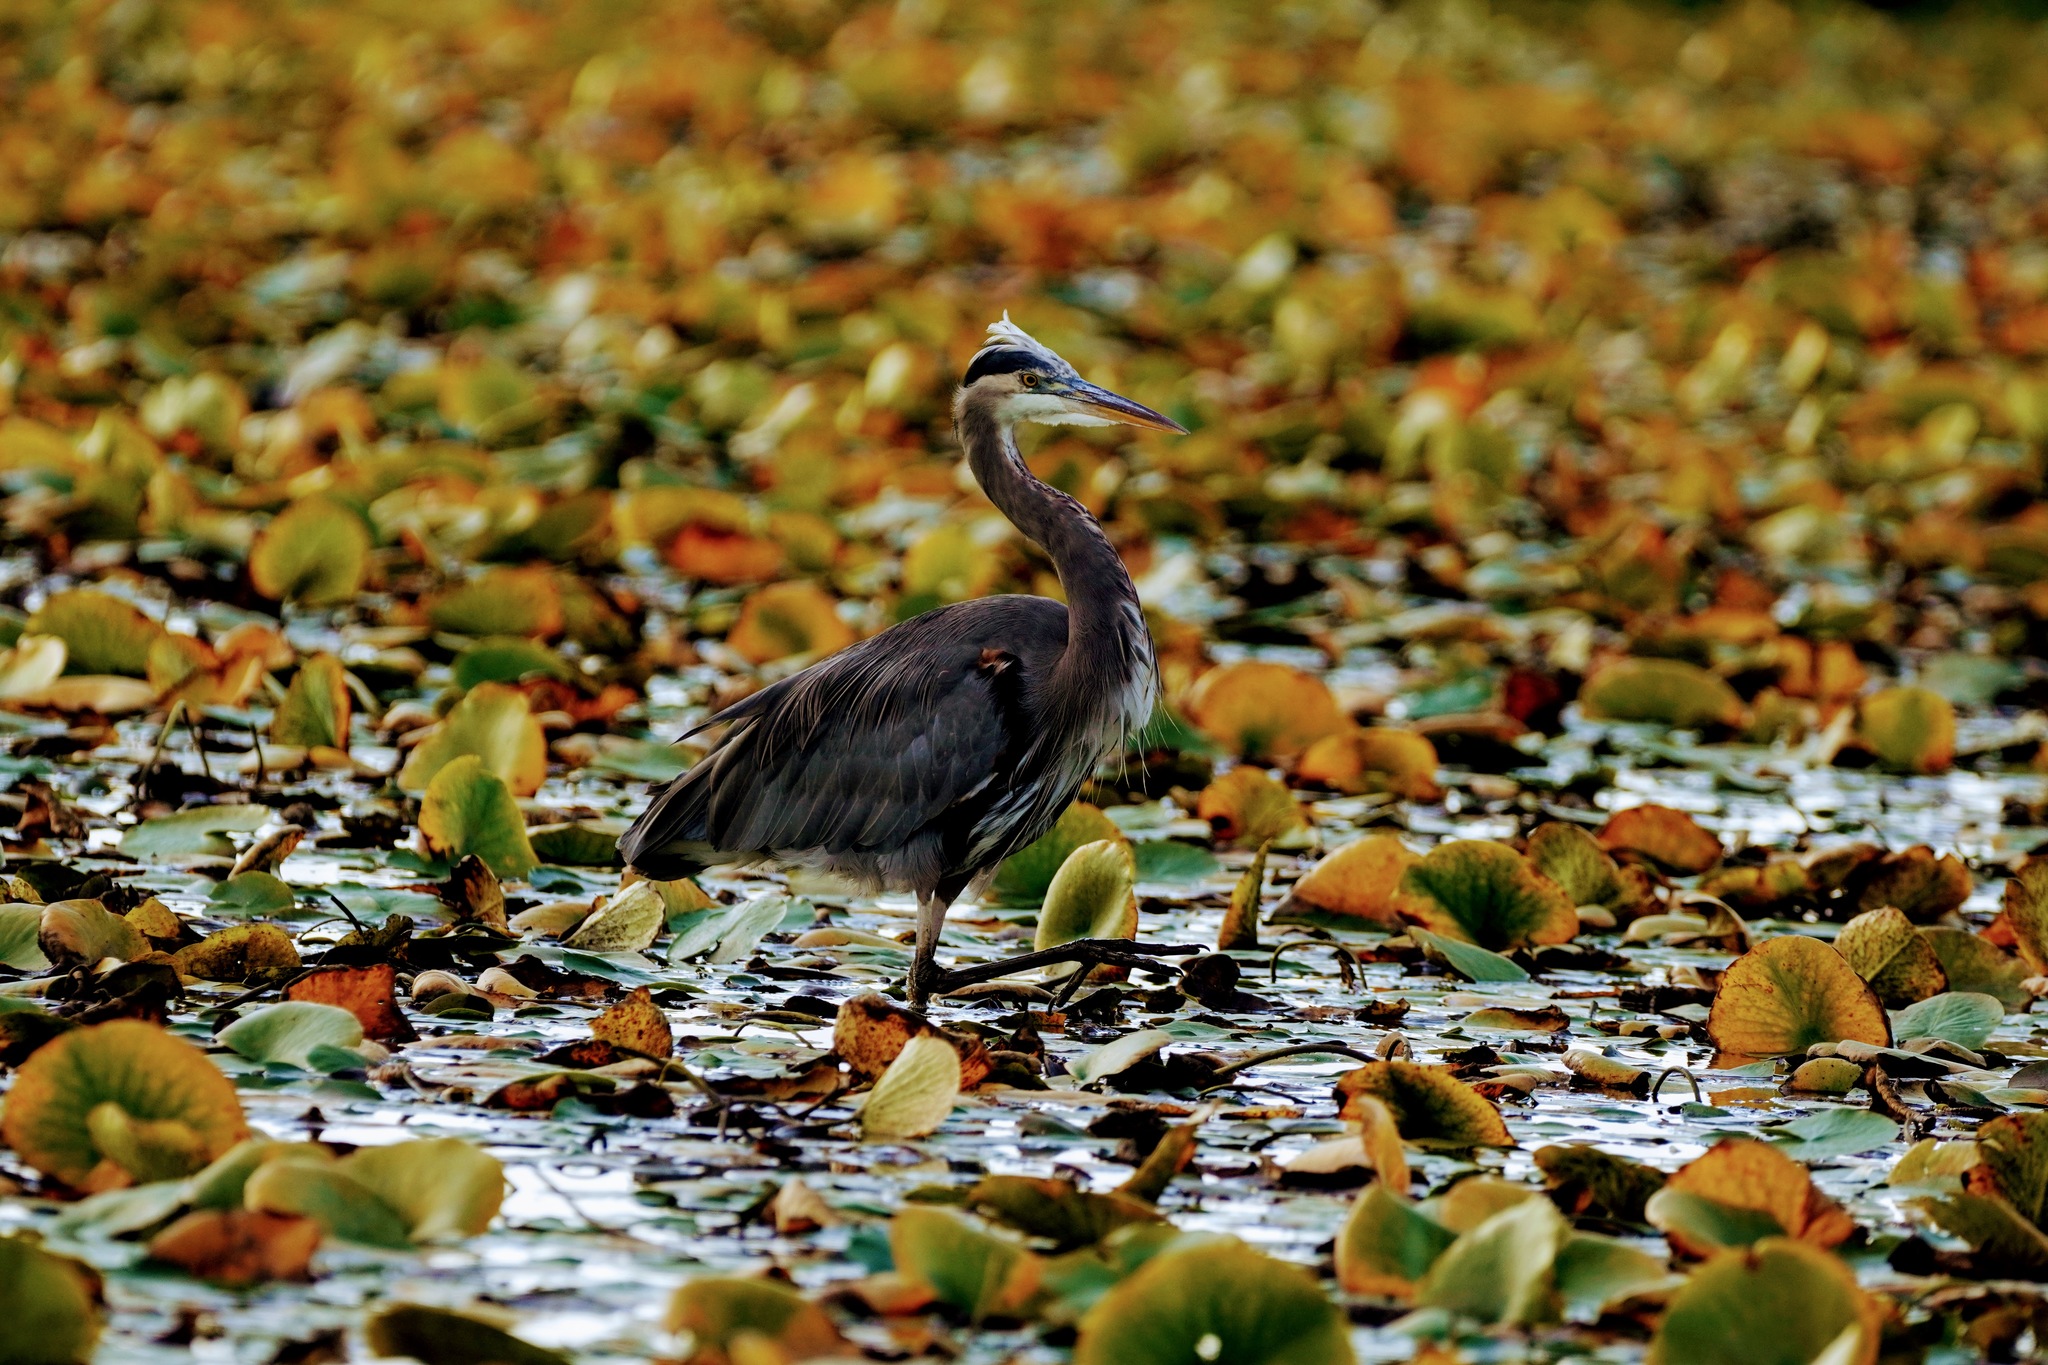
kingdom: Animalia
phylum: Chordata
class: Aves
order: Pelecaniformes
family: Ardeidae
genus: Ardea
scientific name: Ardea herodias
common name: Great blue heron
